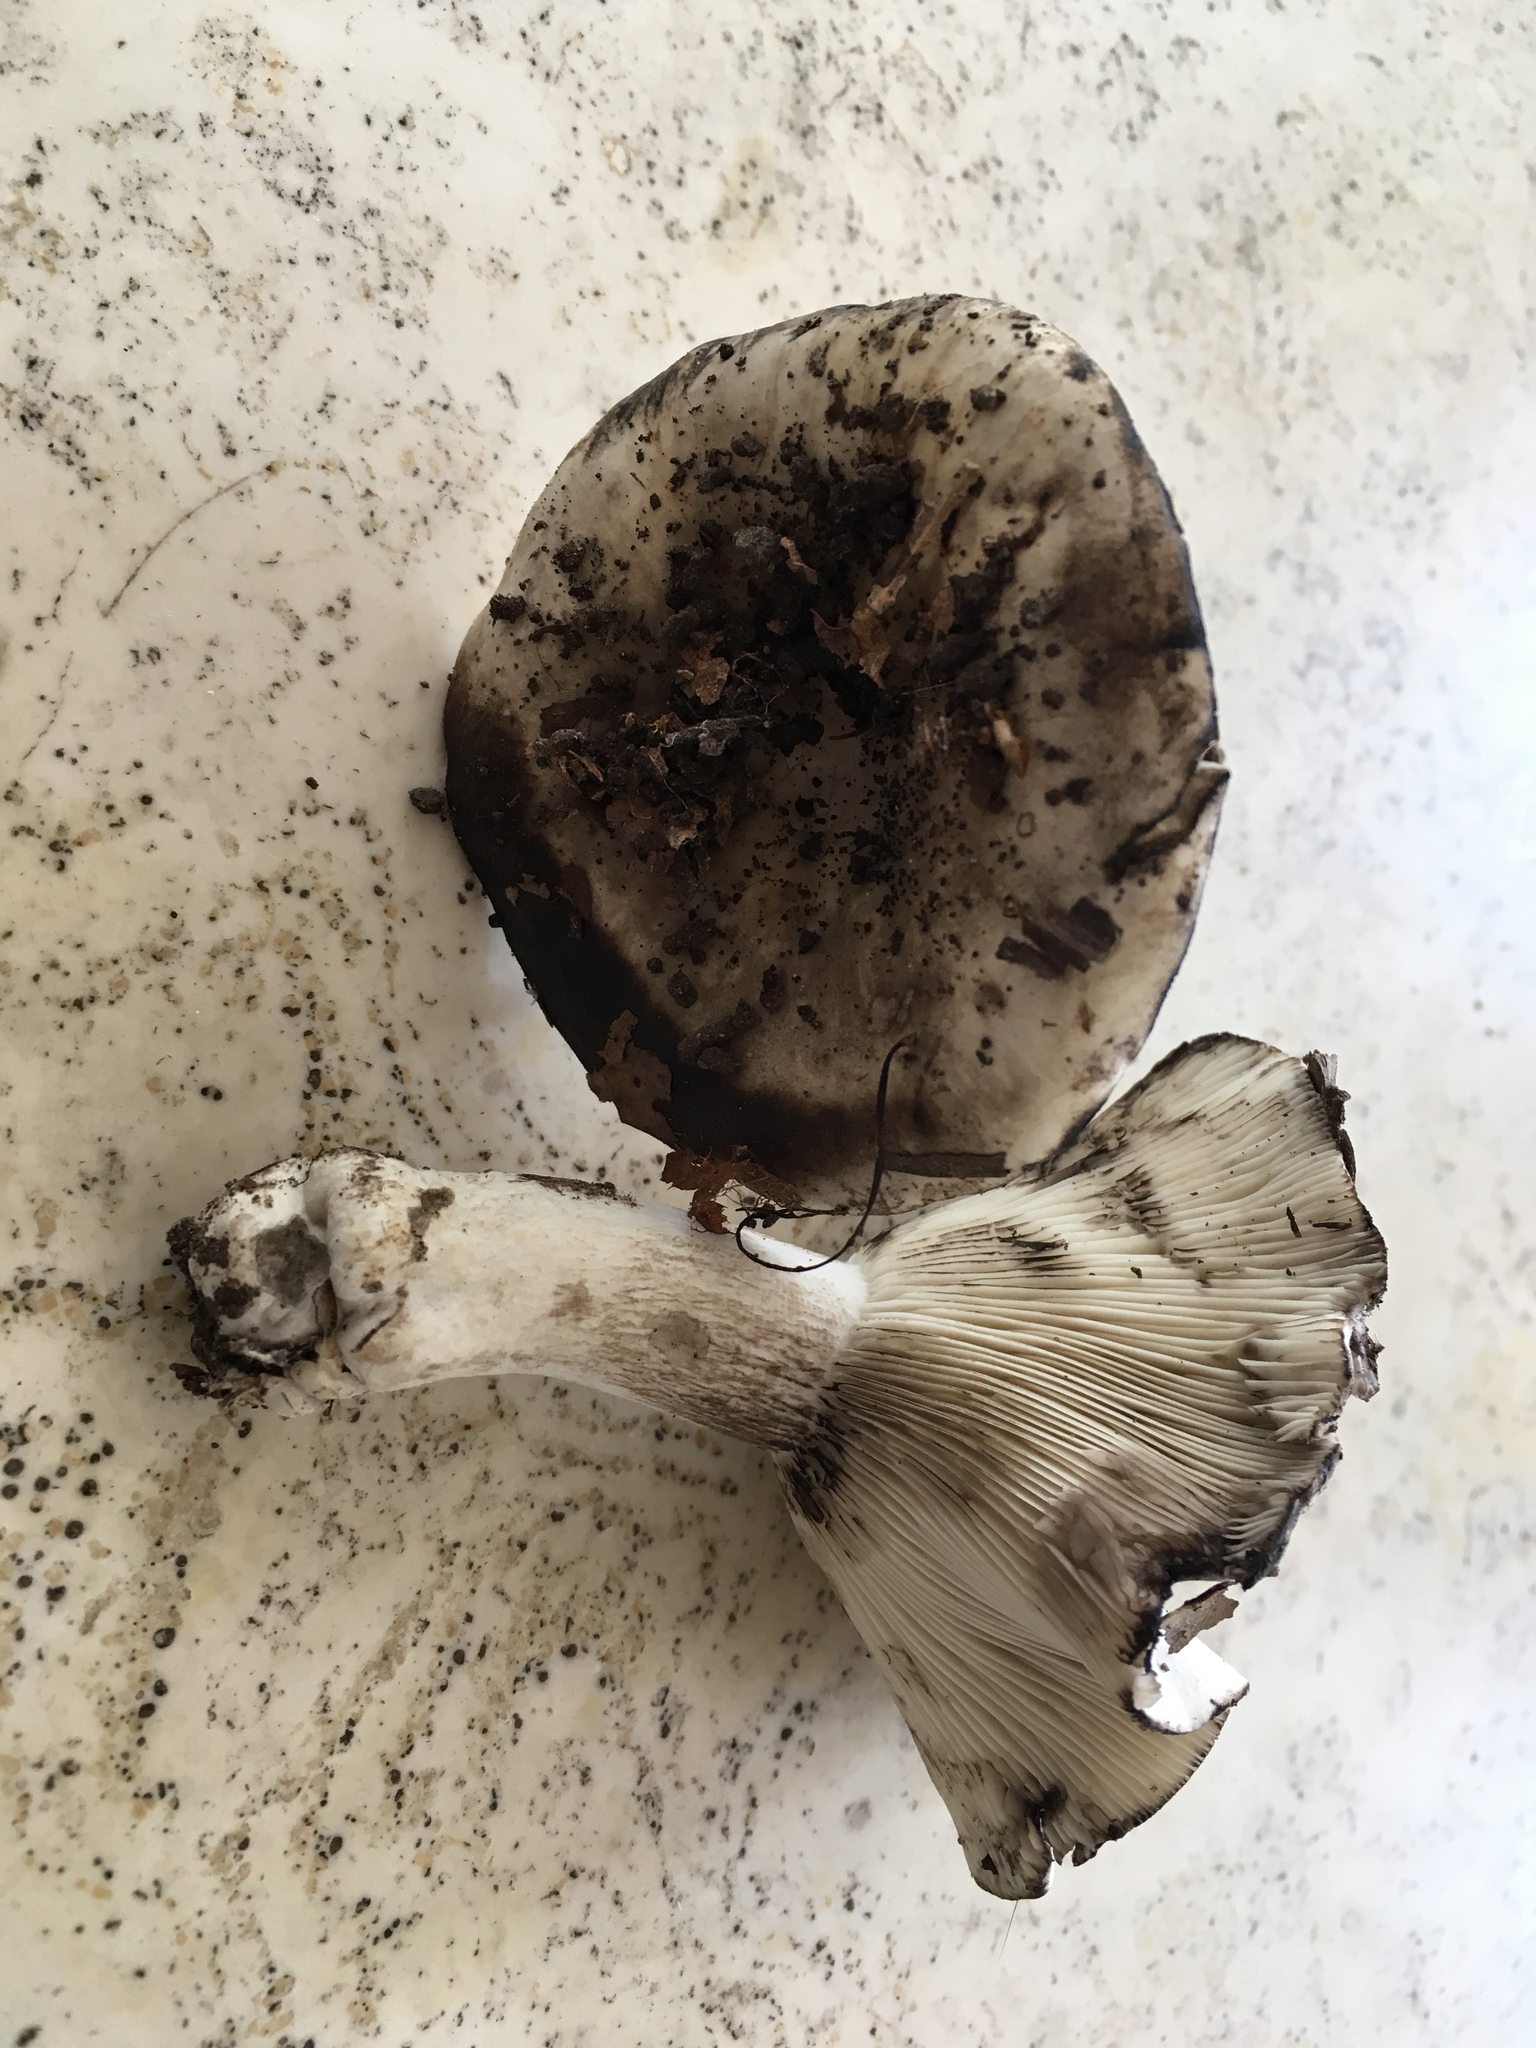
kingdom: Fungi
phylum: Basidiomycota
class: Agaricomycetes
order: Russulales
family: Russulaceae
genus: Russula
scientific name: Russula albonigra
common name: Menthol brittlegill
